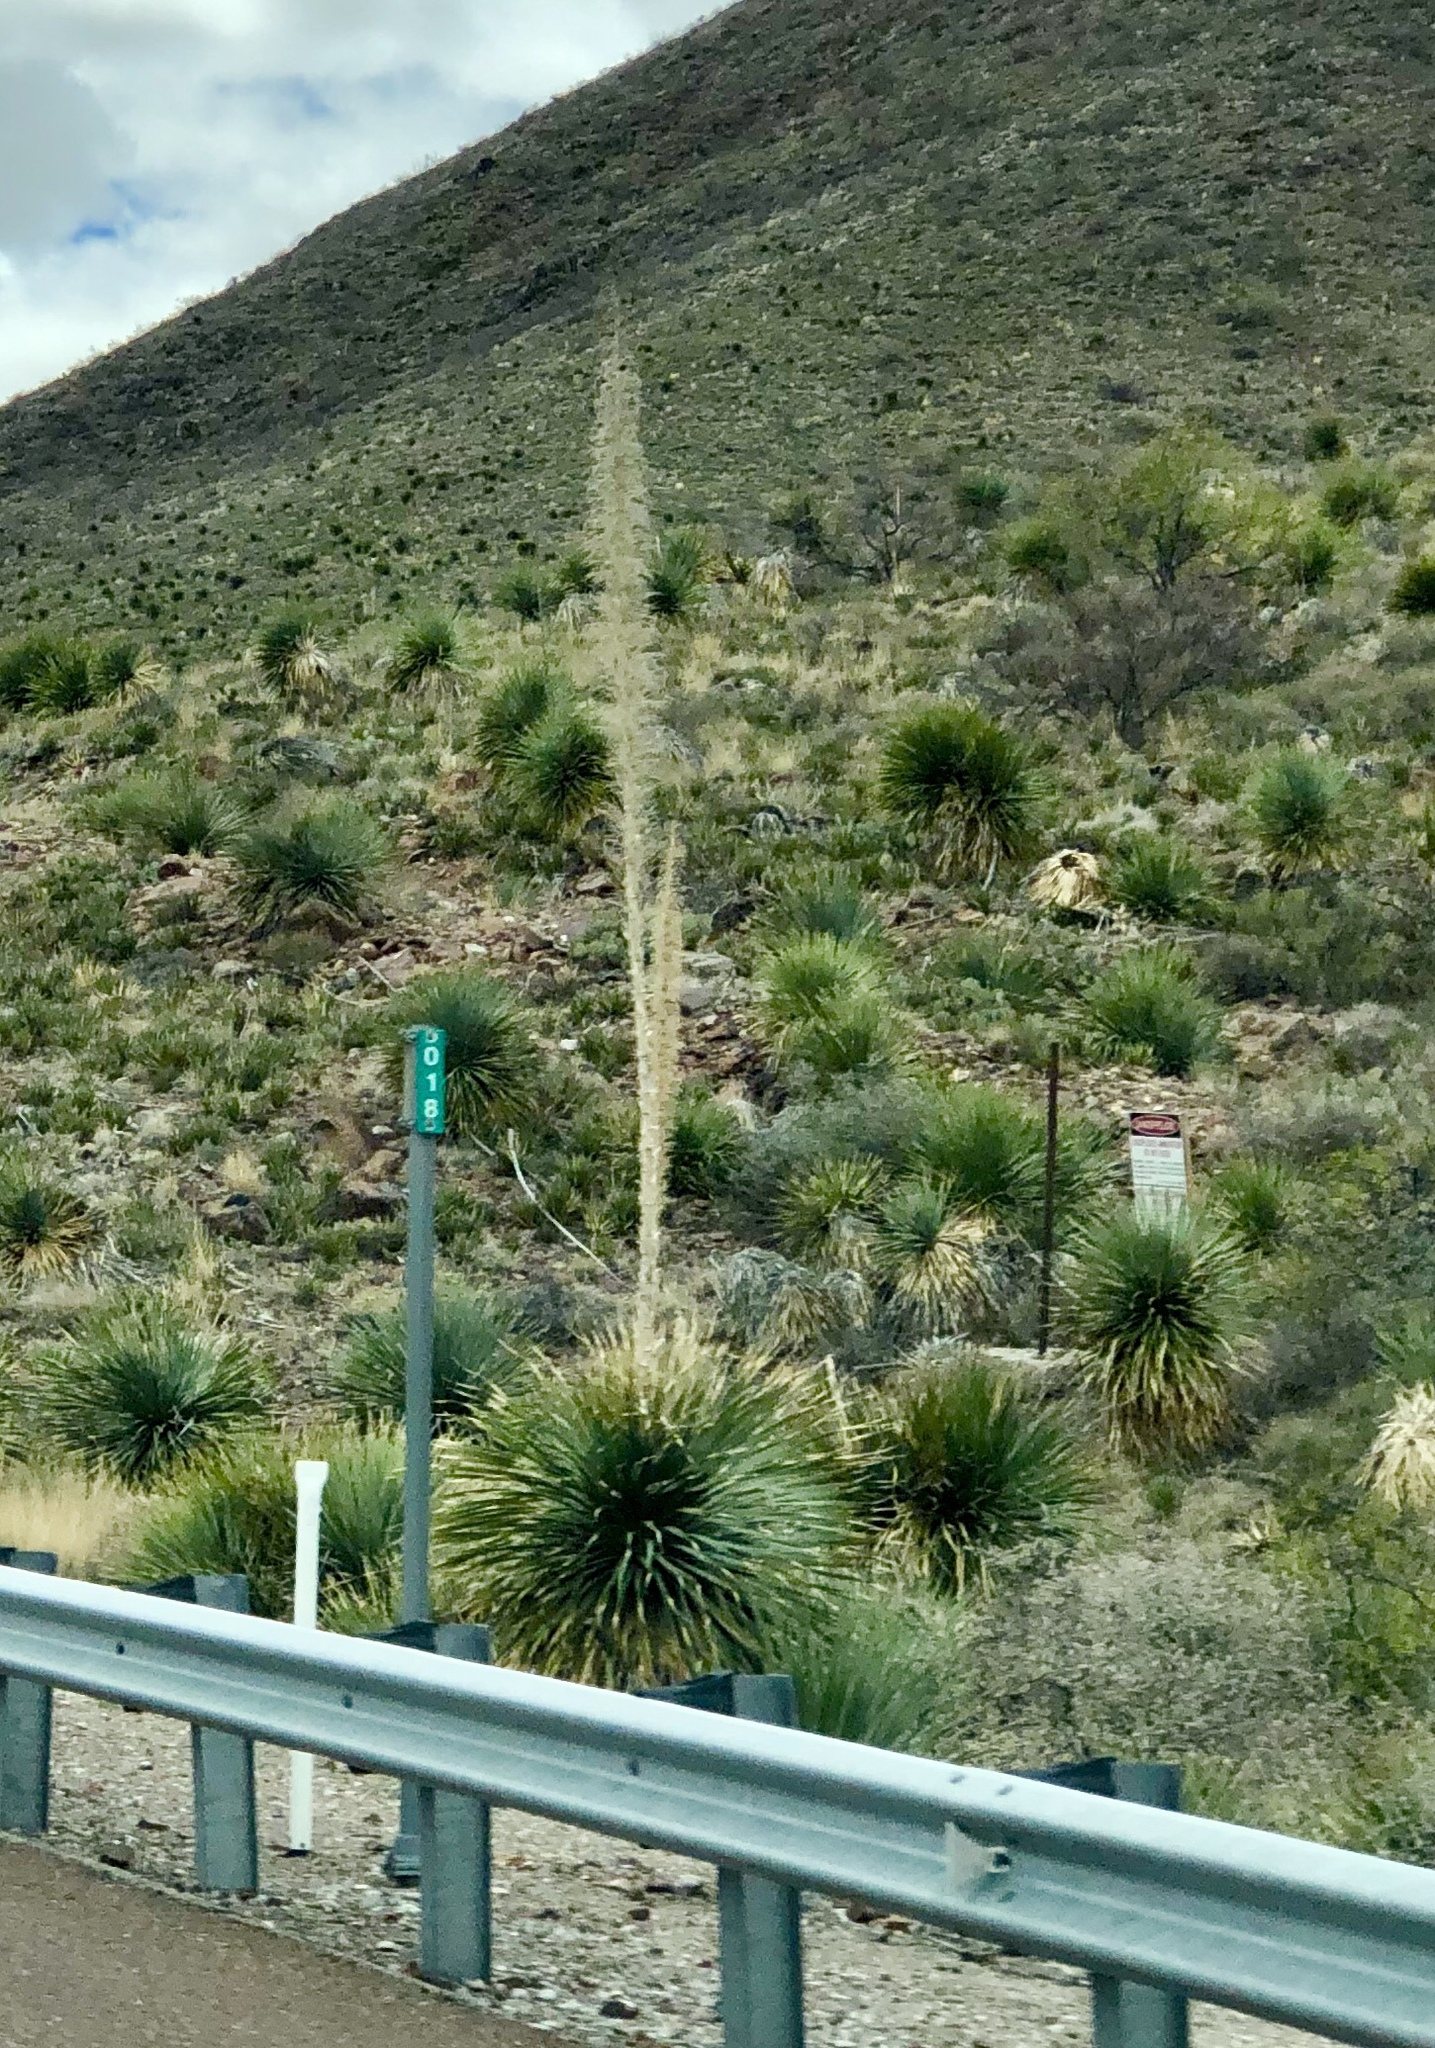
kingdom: Plantae
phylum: Tracheophyta
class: Liliopsida
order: Asparagales
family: Asparagaceae
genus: Dasylirion
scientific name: Dasylirion wheeleri
